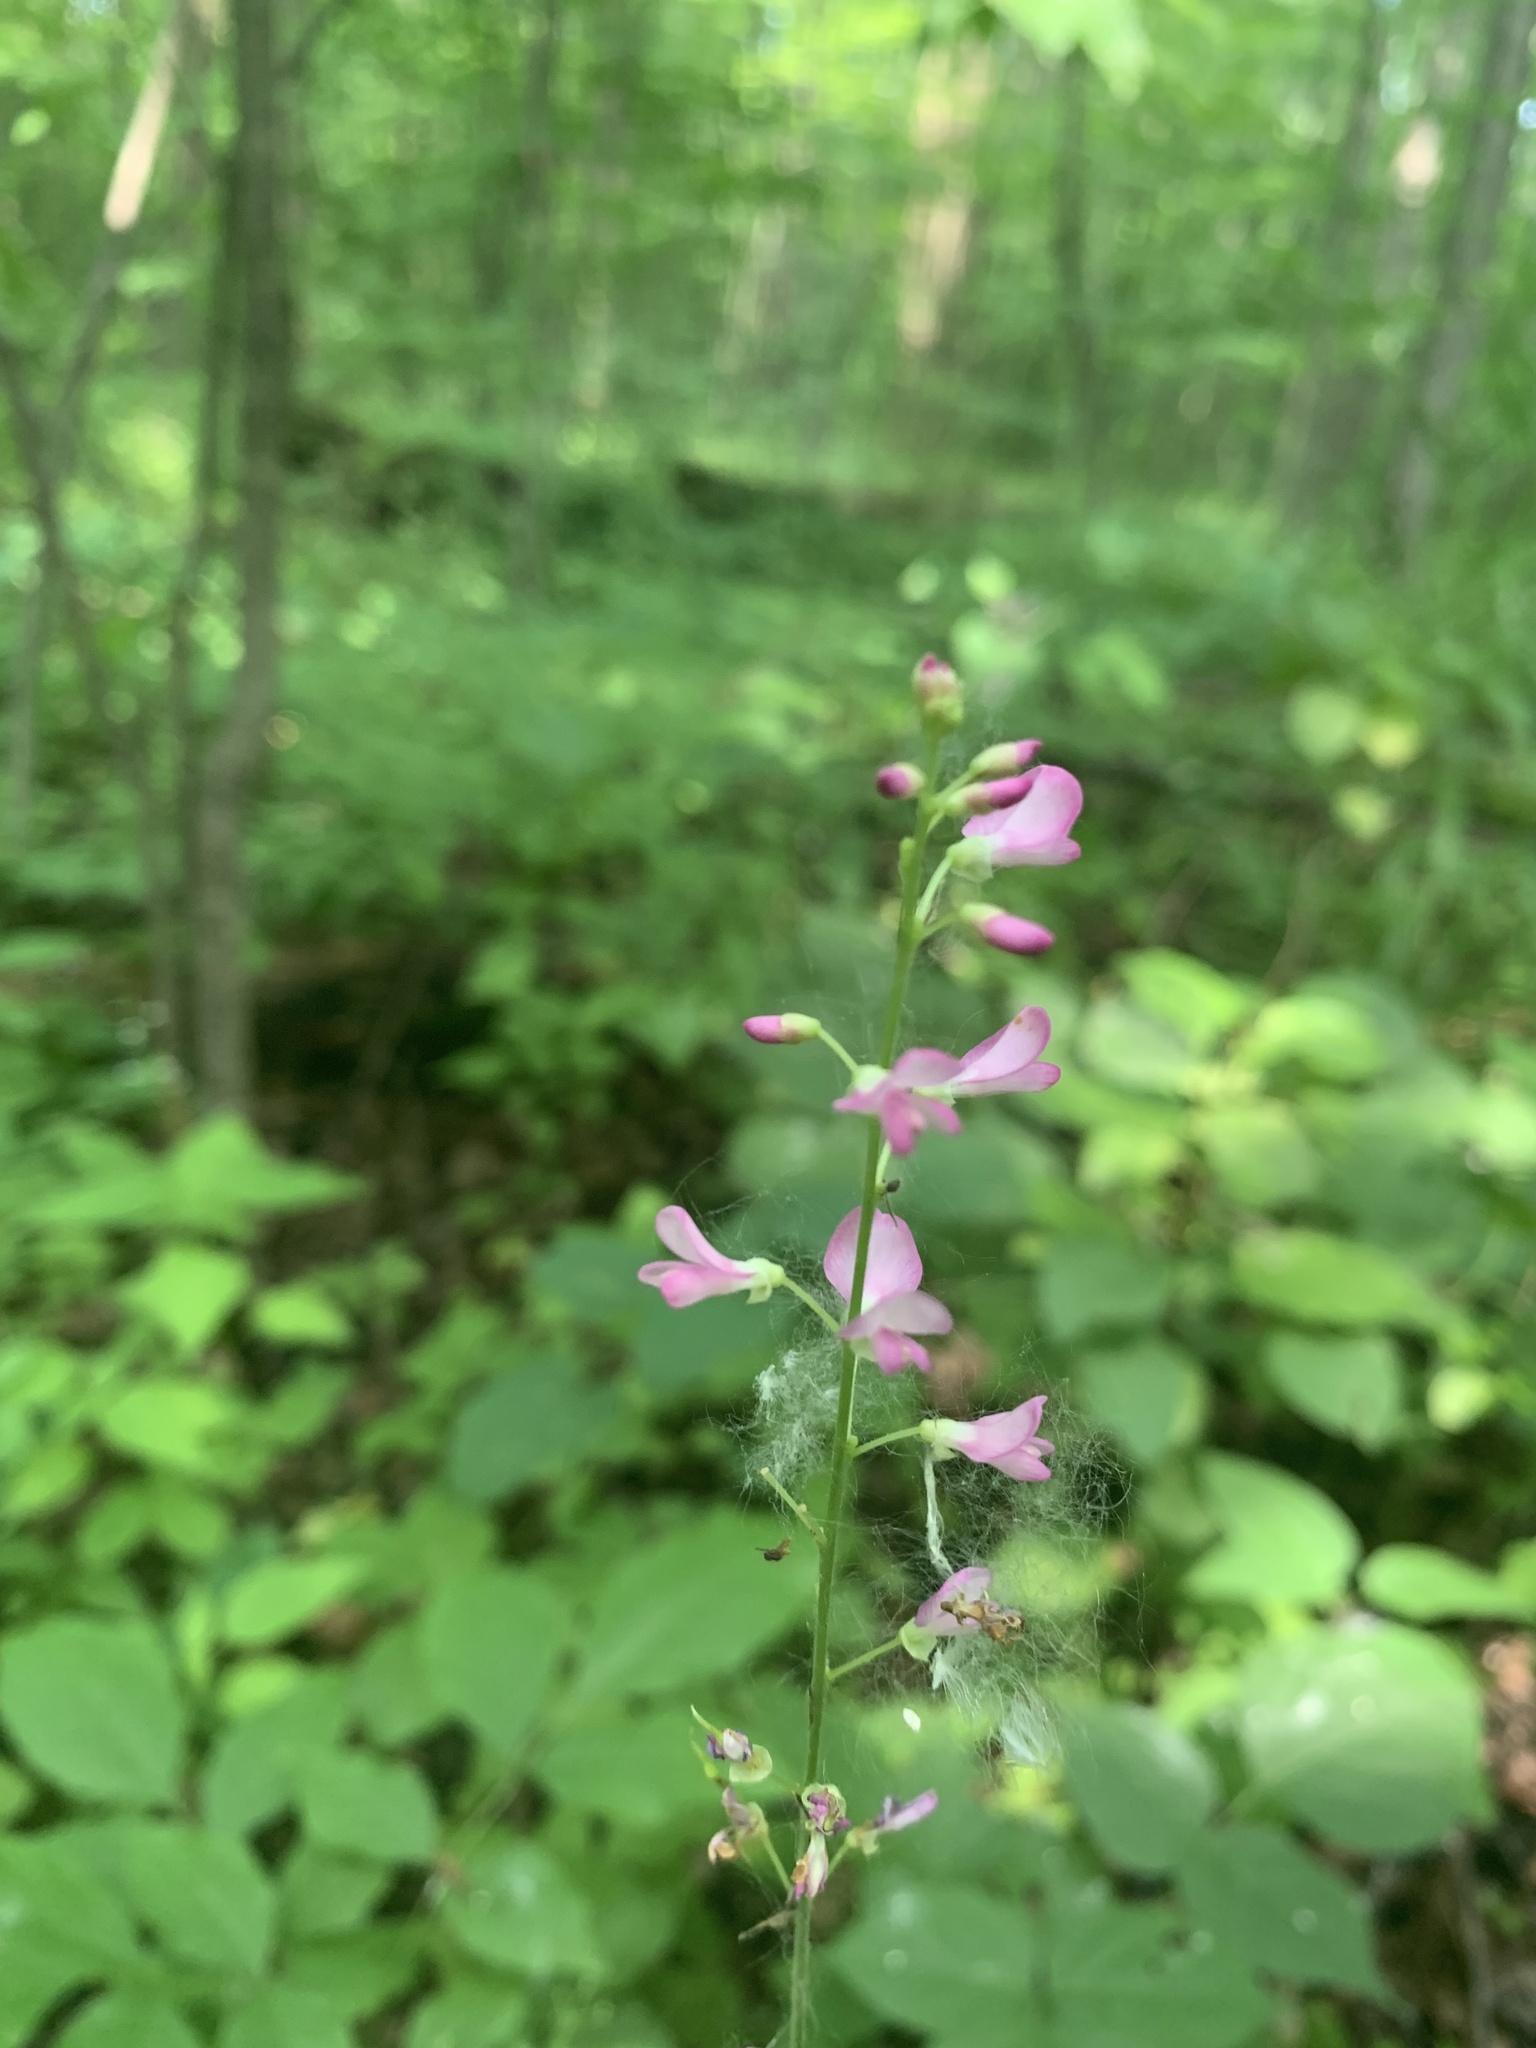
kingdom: Plantae
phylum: Tracheophyta
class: Magnoliopsida
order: Fabales
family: Fabaceae
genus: Hylodesmum
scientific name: Hylodesmum glutinosum
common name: Clustered-leaved tick-trefoil
